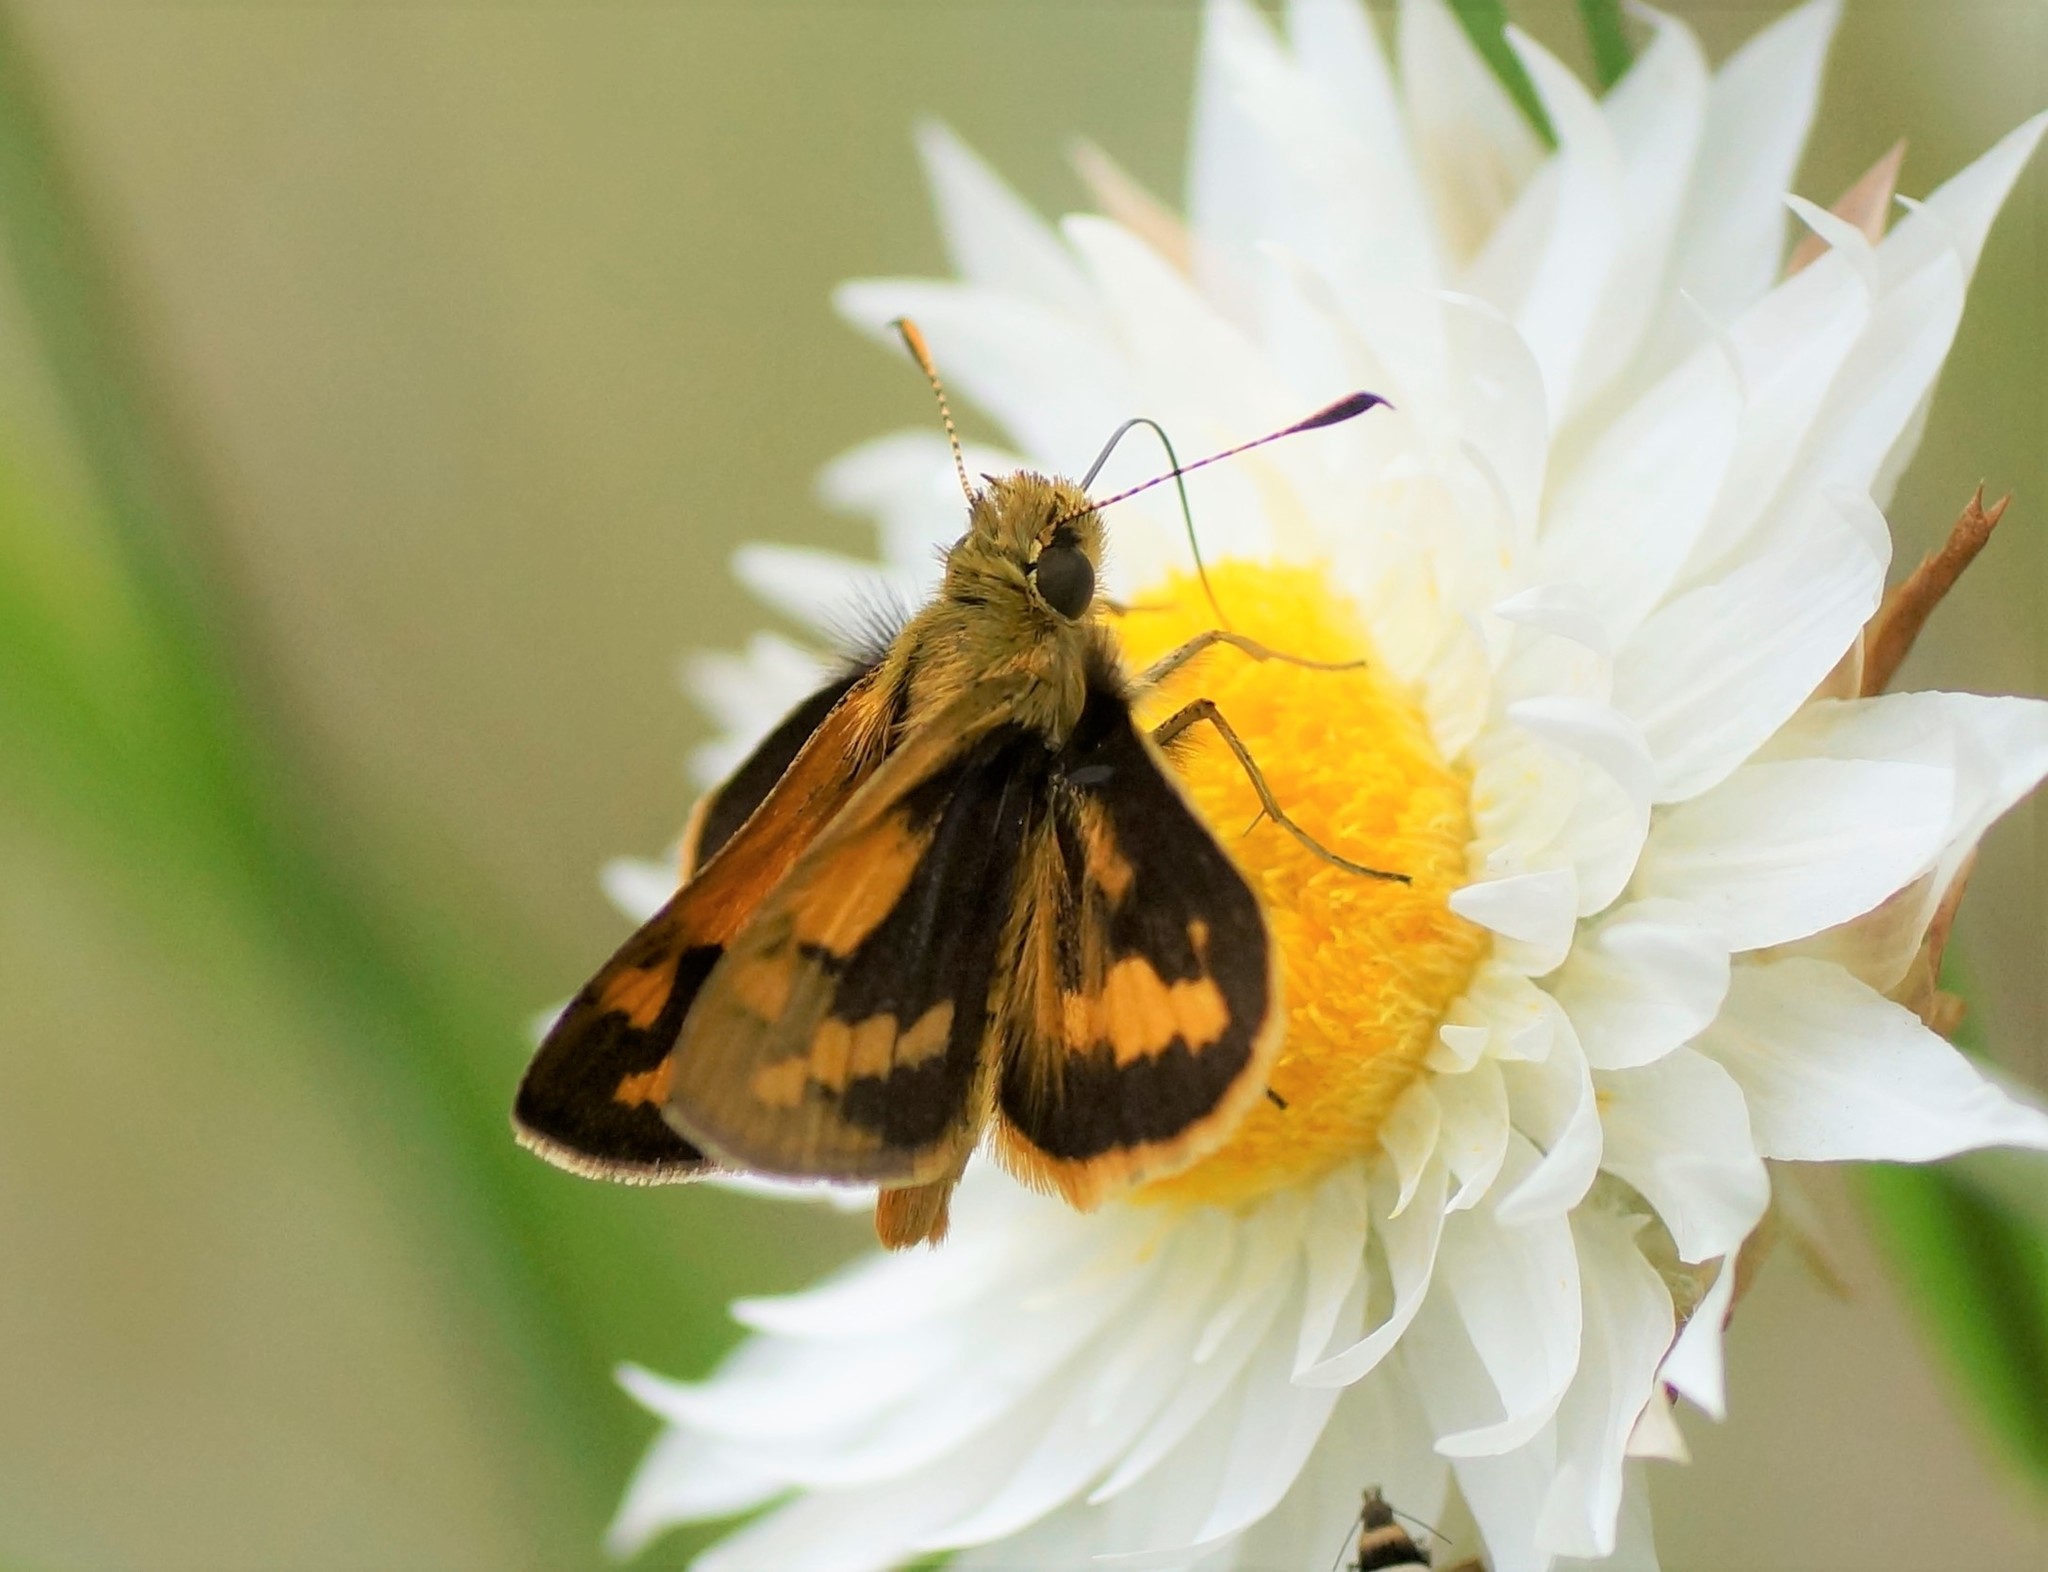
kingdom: Animalia
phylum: Arthropoda
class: Insecta
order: Lepidoptera
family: Hesperiidae
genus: Ocybadistes
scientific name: Ocybadistes walkeri
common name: Yellow-banded dart
